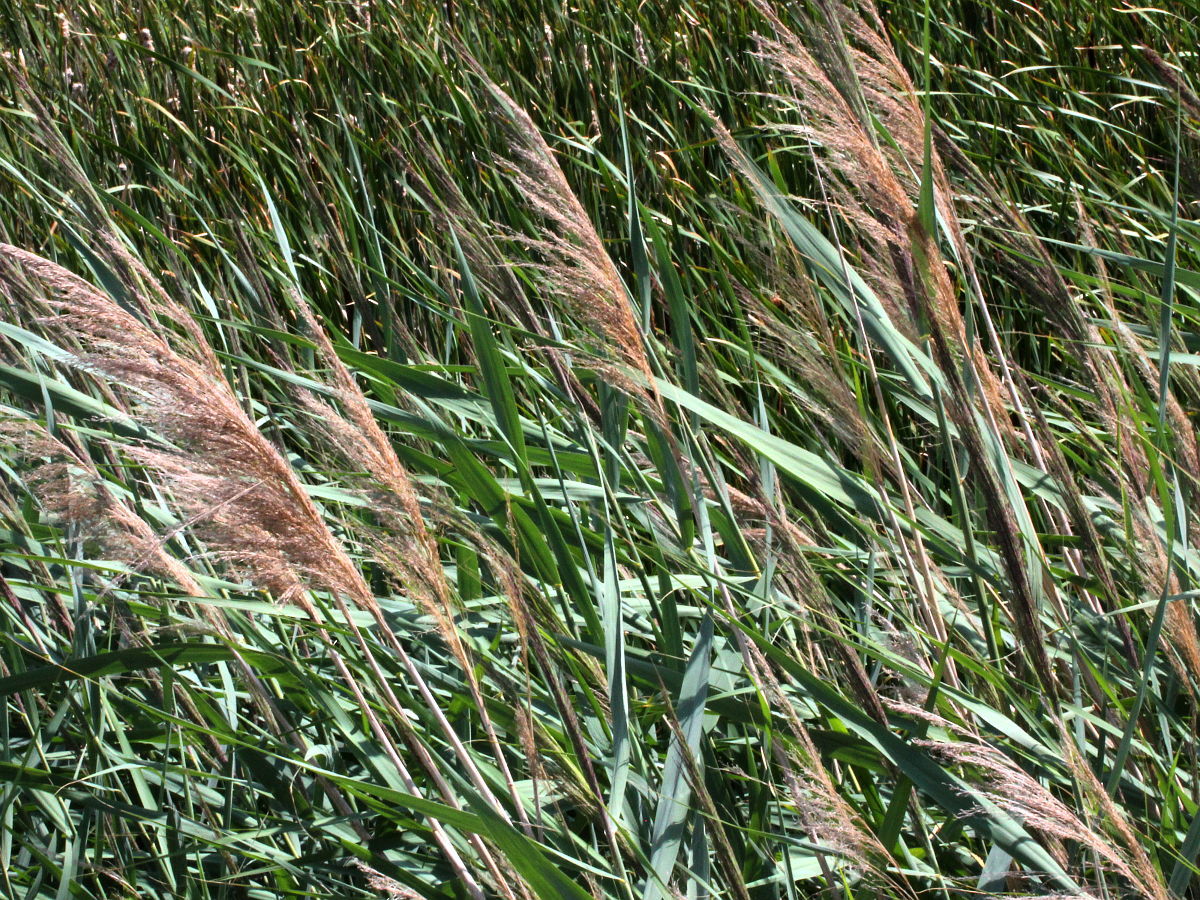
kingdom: Plantae
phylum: Tracheophyta
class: Liliopsida
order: Poales
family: Poaceae
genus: Phragmites
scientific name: Phragmites australis
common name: Common reed
